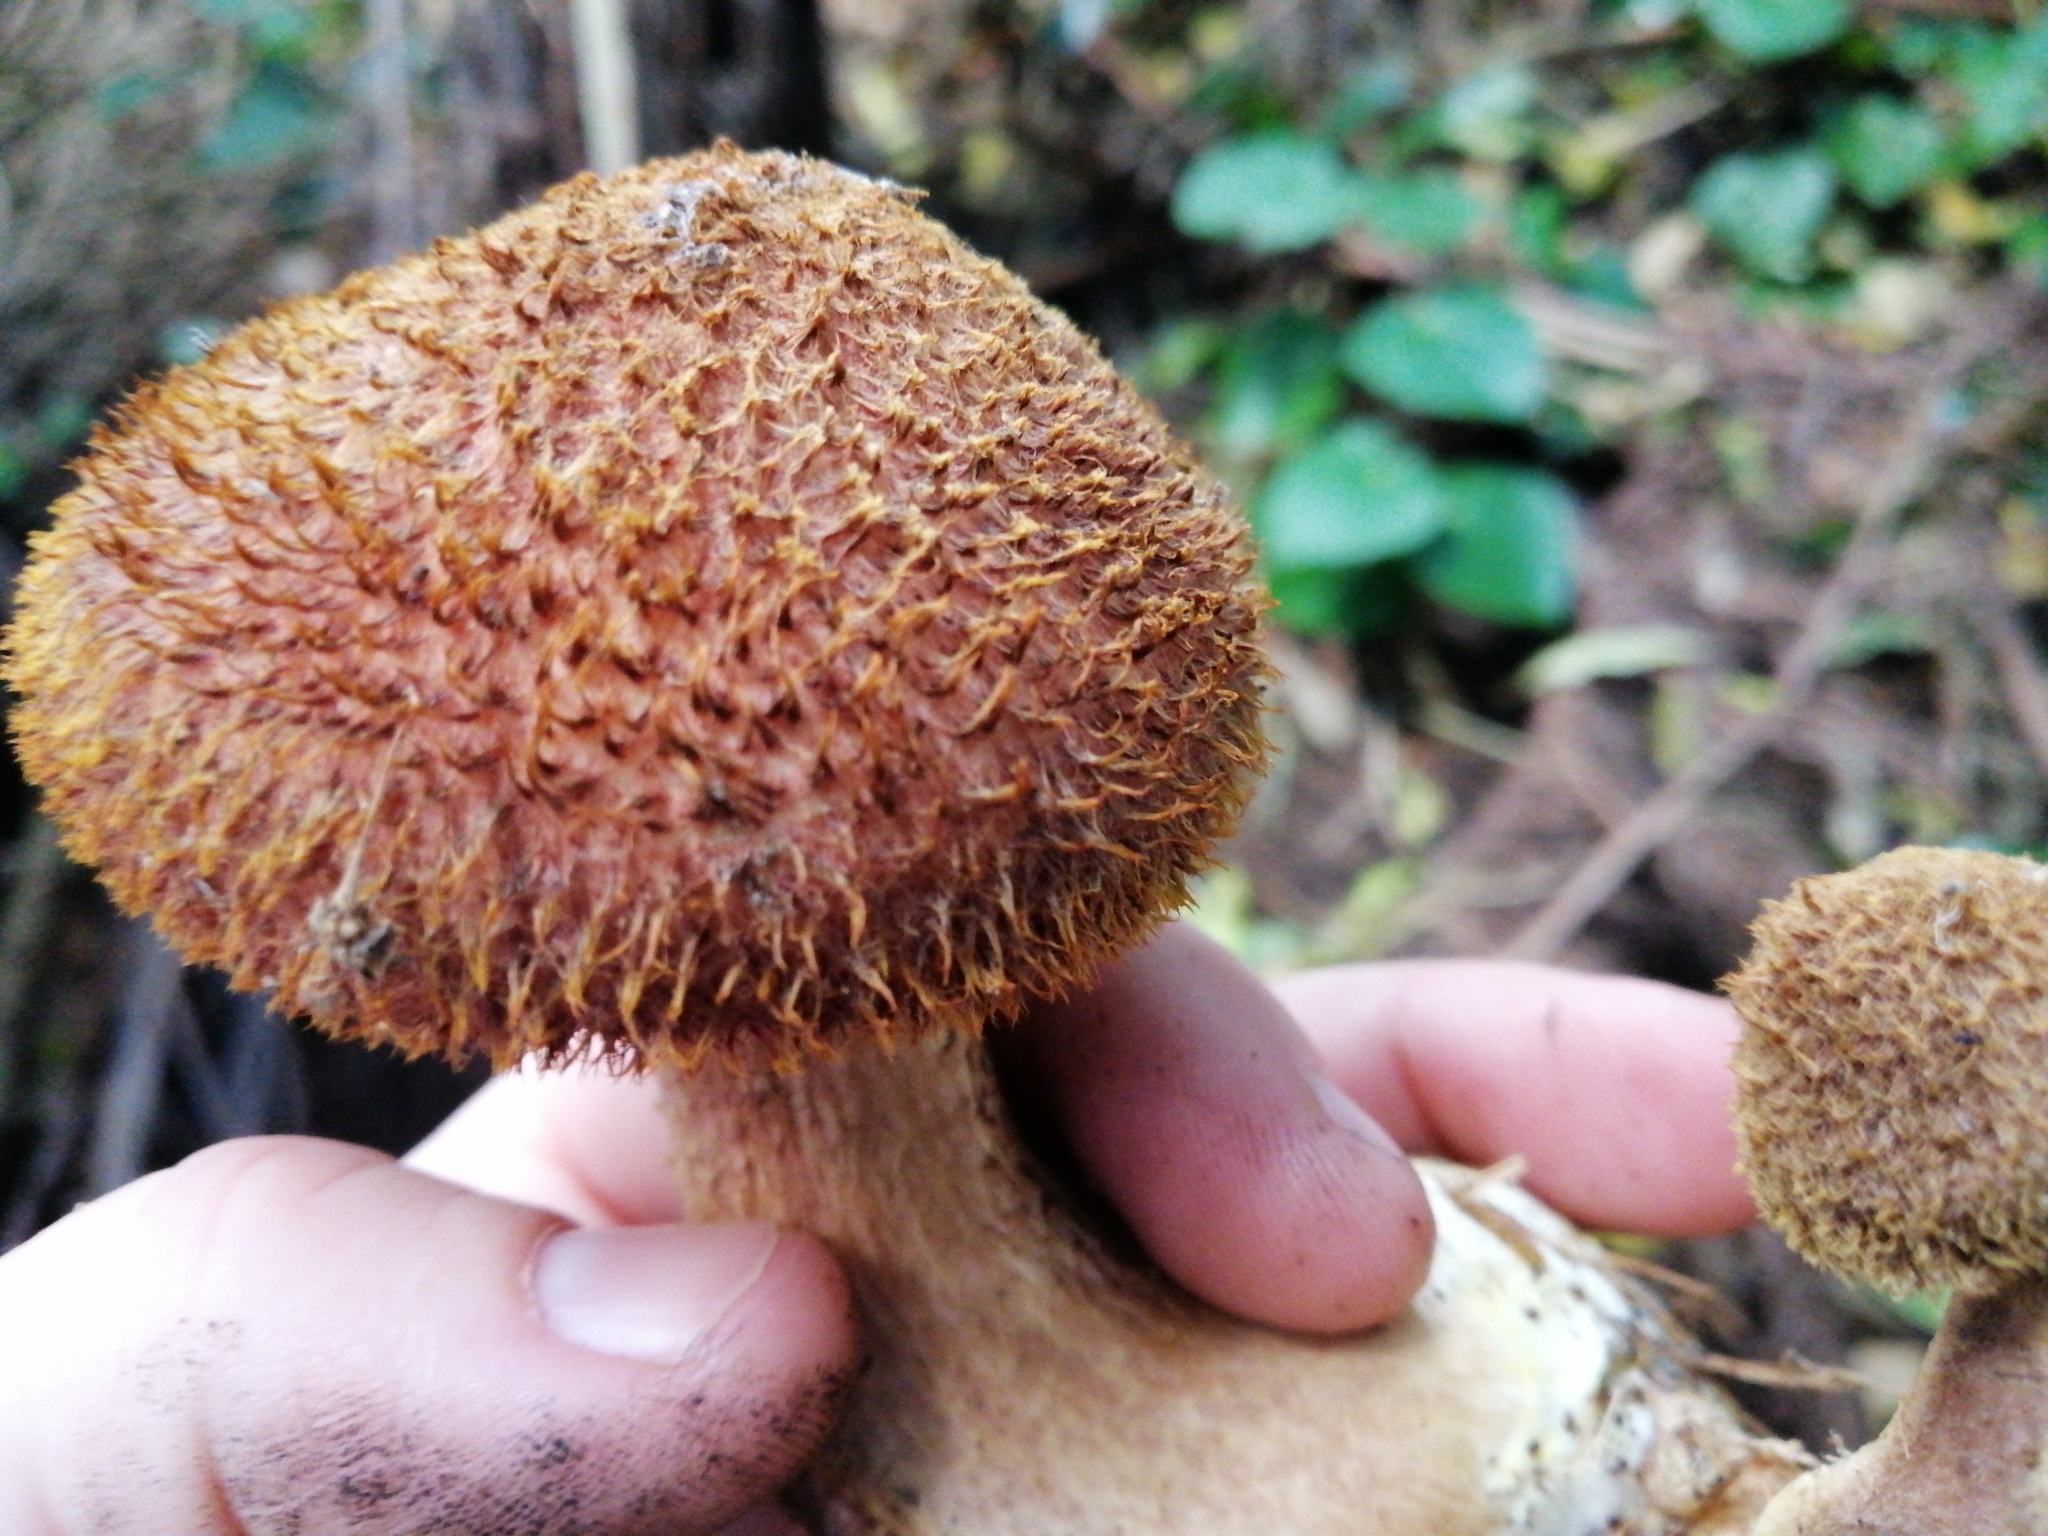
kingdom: Fungi
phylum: Basidiomycota
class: Agaricomycetes
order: Agaricales
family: Tricholomataceae
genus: Tricholomopsis
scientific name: Tricholomopsis scabra
